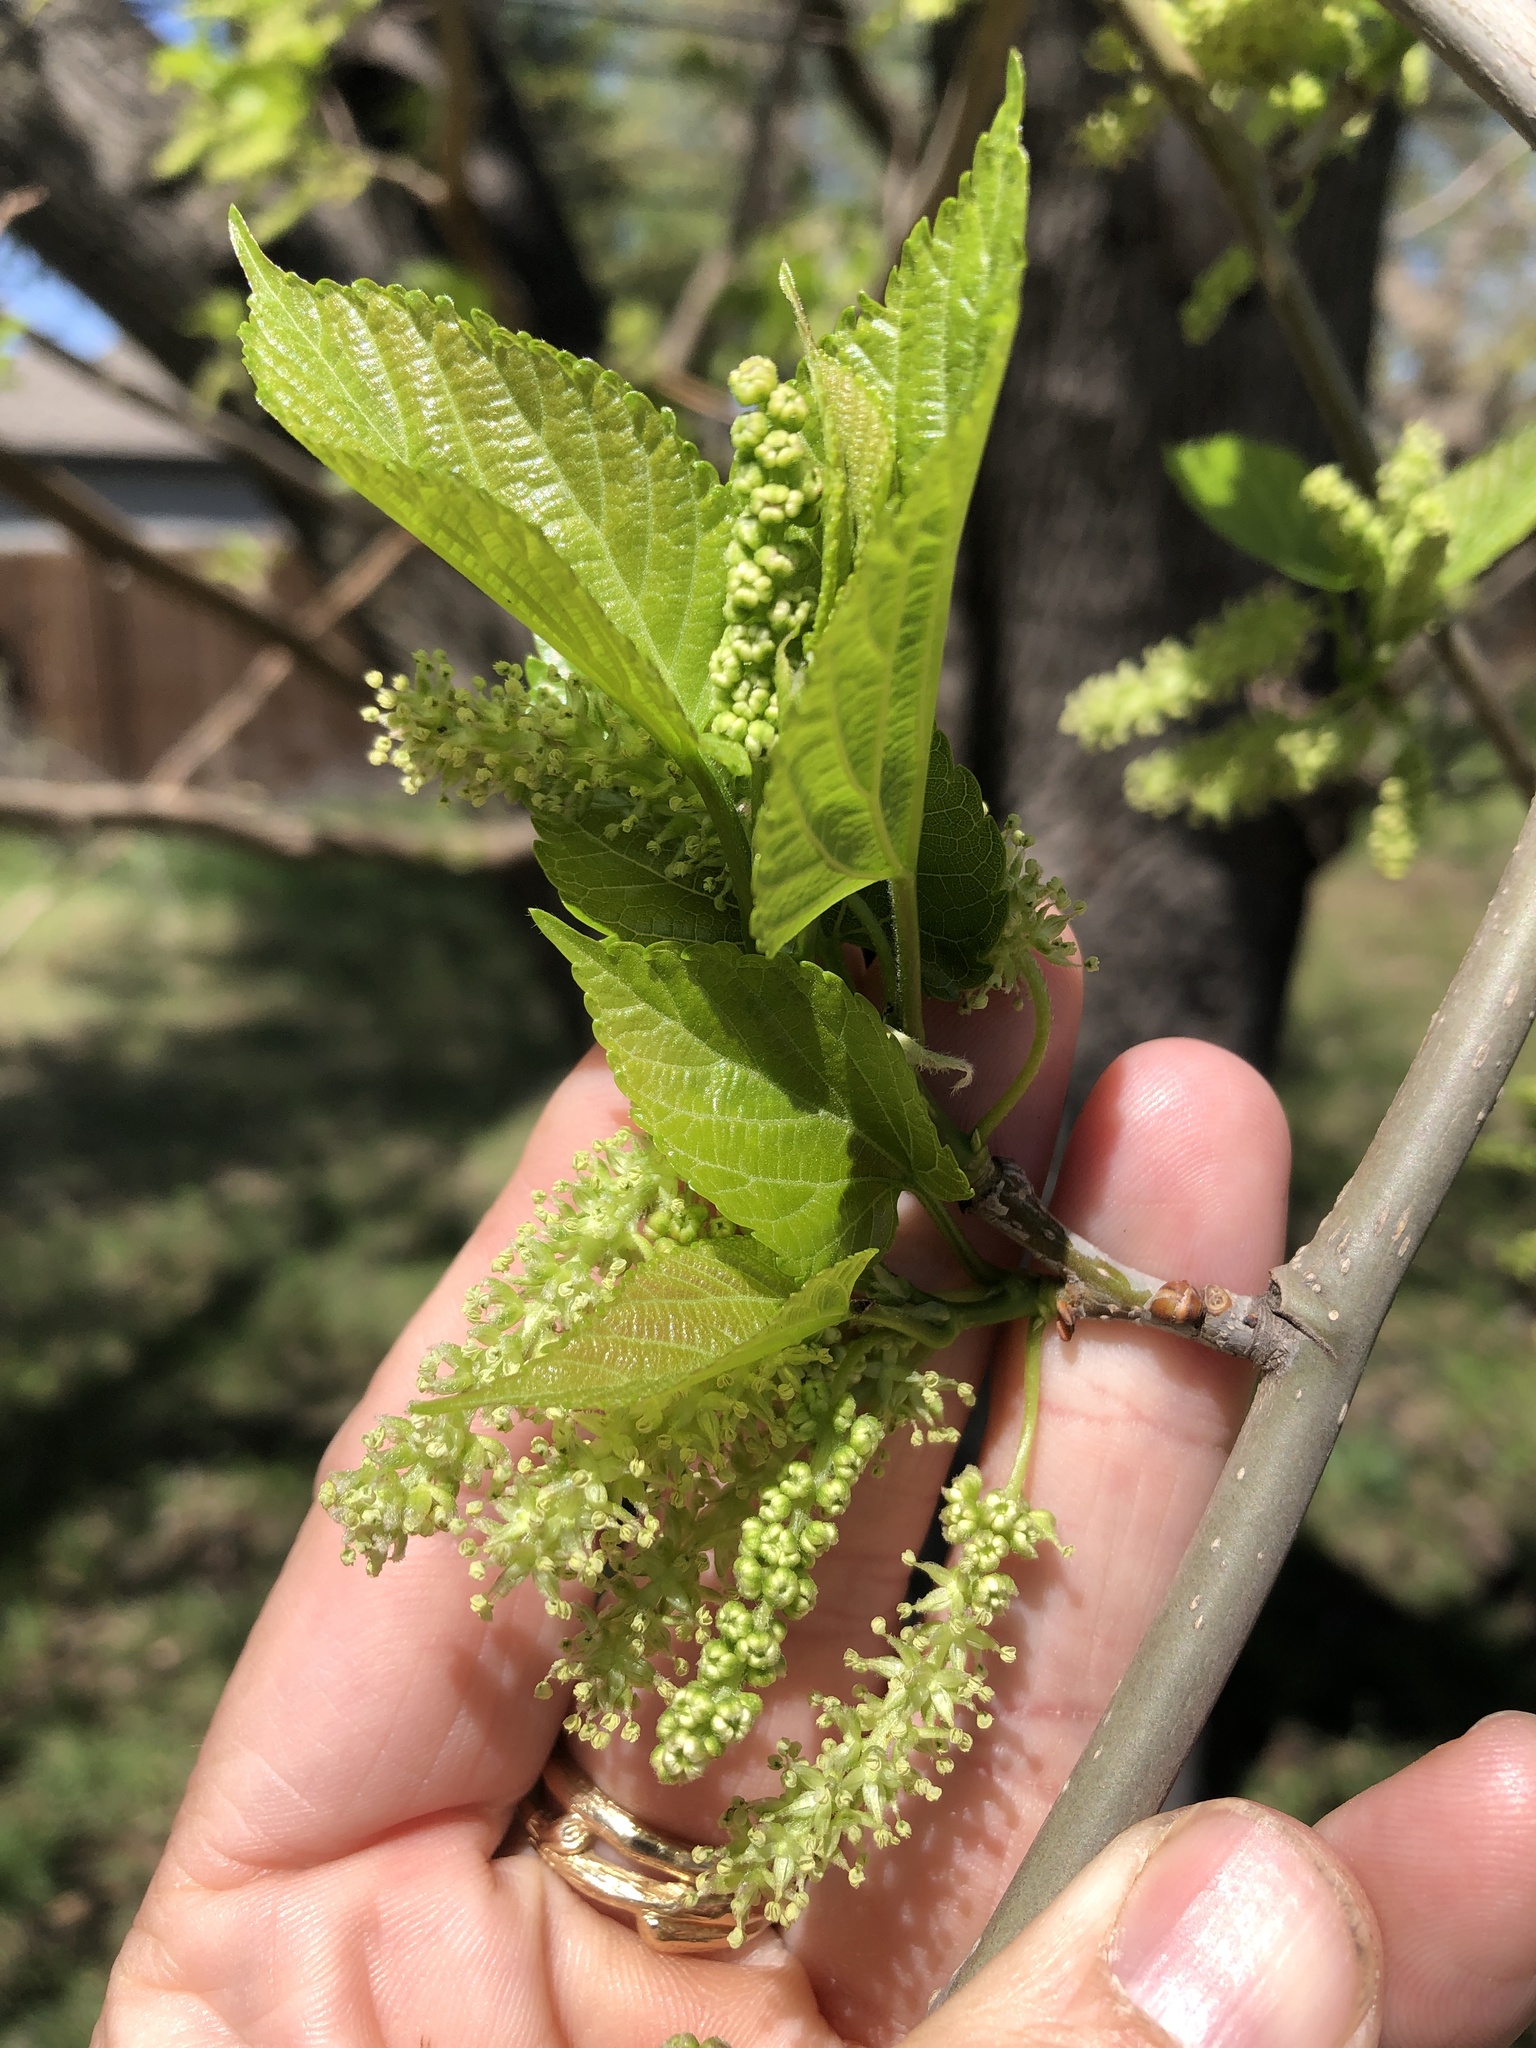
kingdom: Plantae
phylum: Tracheophyta
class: Magnoliopsida
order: Rosales
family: Moraceae
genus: Morus
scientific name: Morus rubra
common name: Red mulberry
